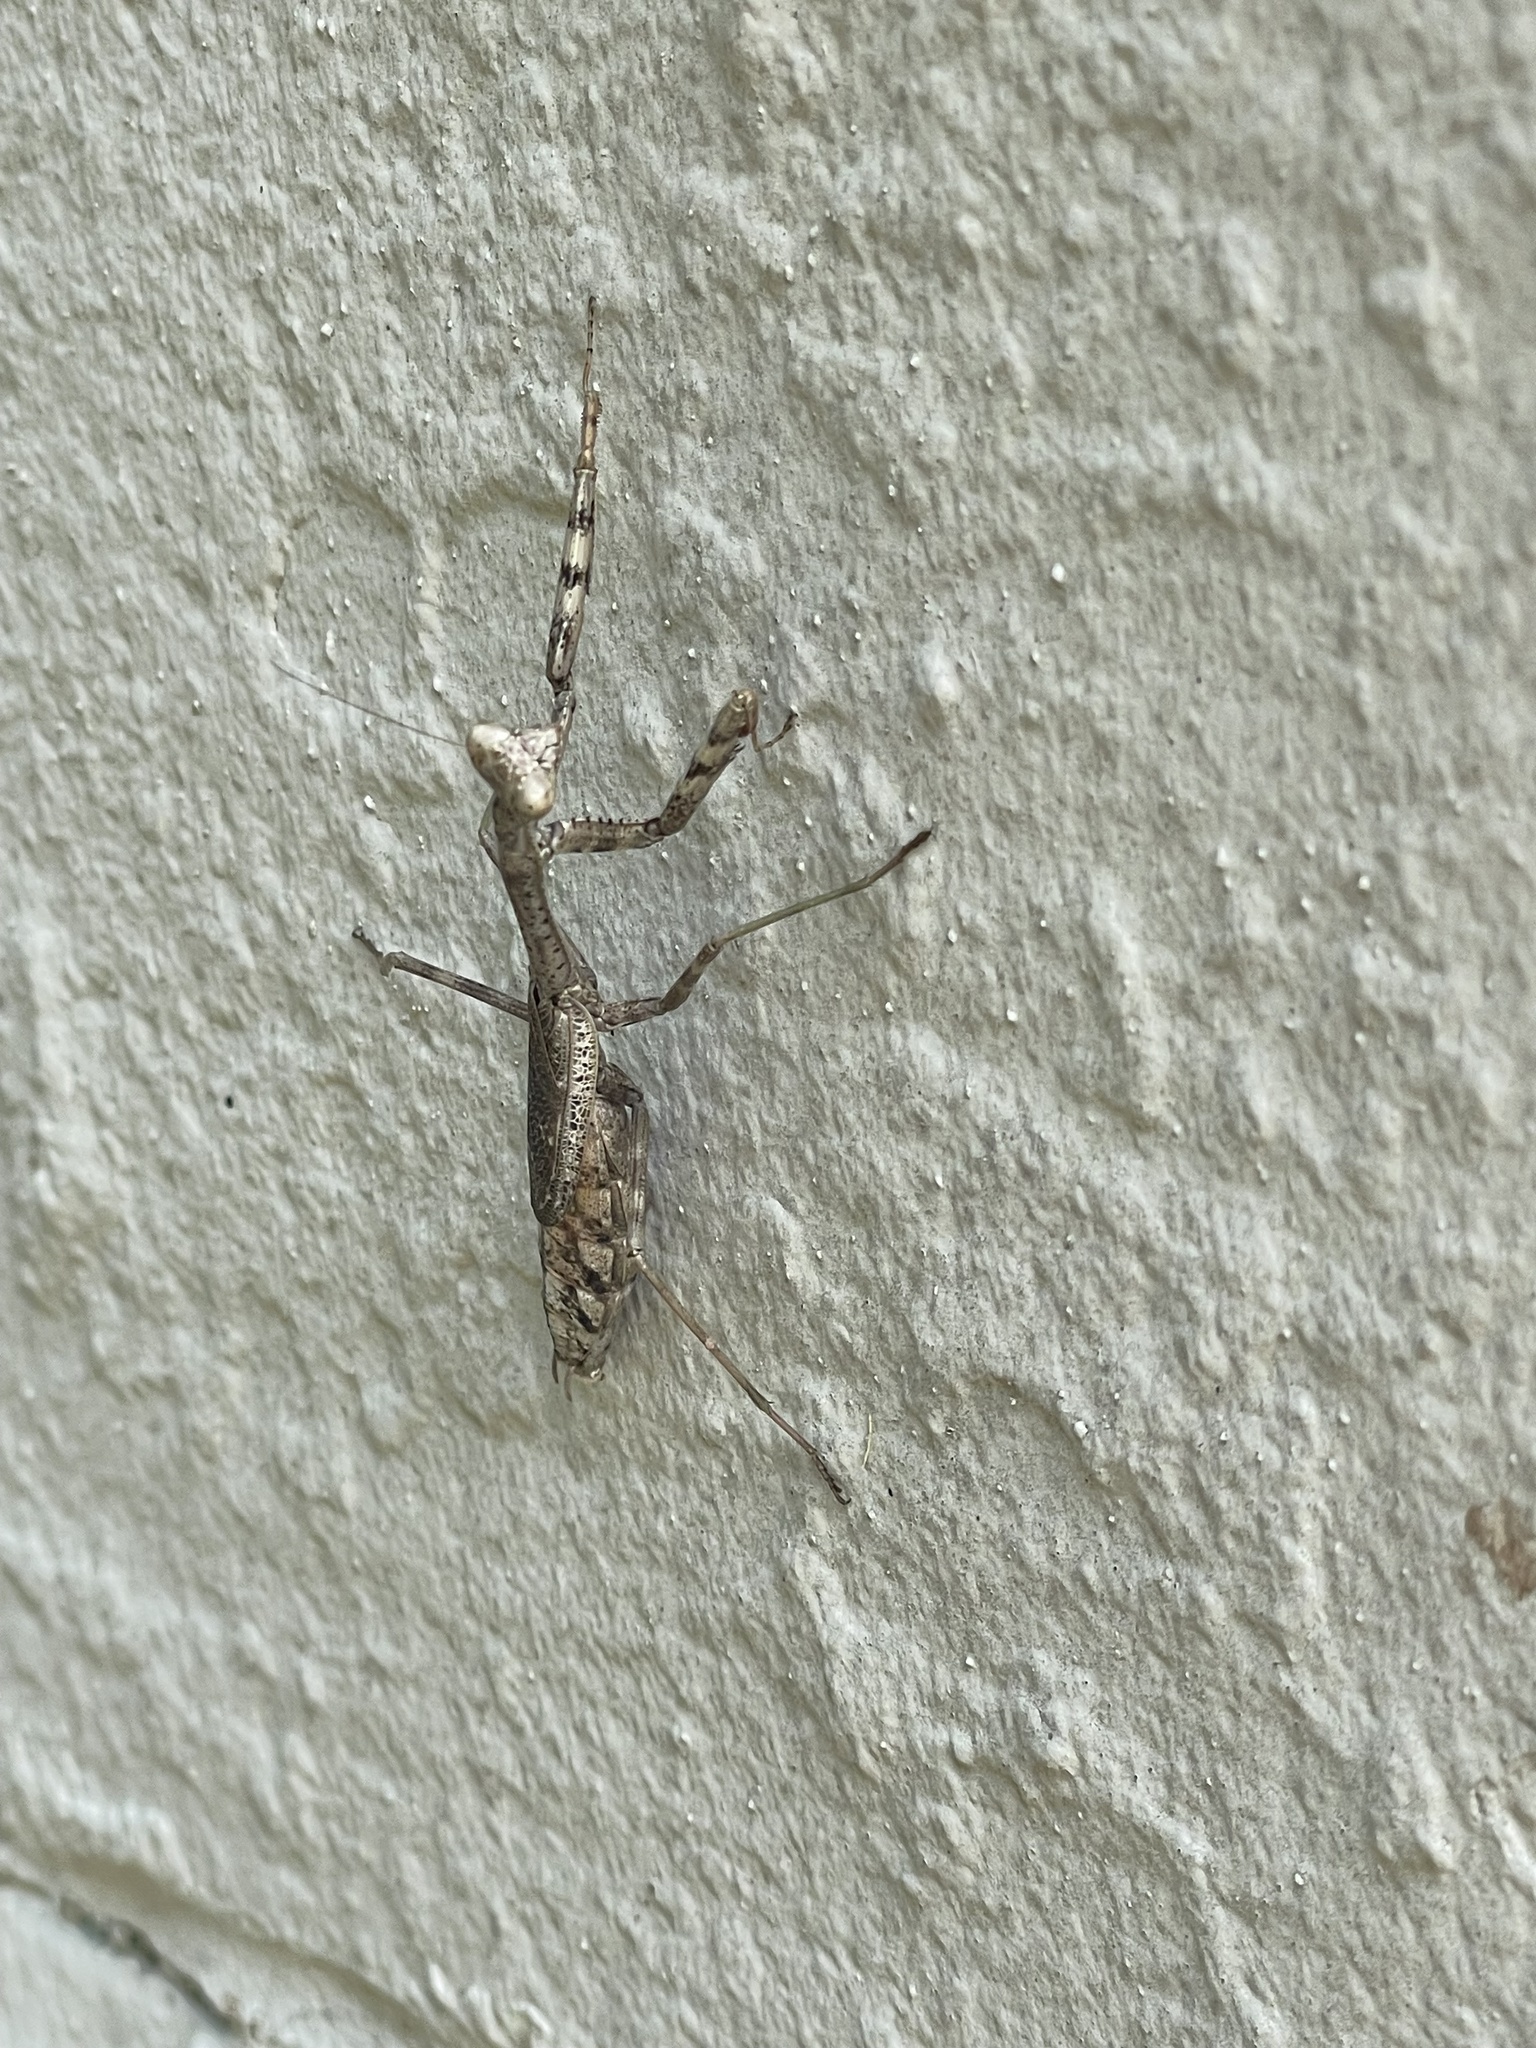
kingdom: Animalia
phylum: Arthropoda
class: Insecta
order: Mantodea
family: Mantidae
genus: Stagmomantis
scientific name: Stagmomantis carolina
